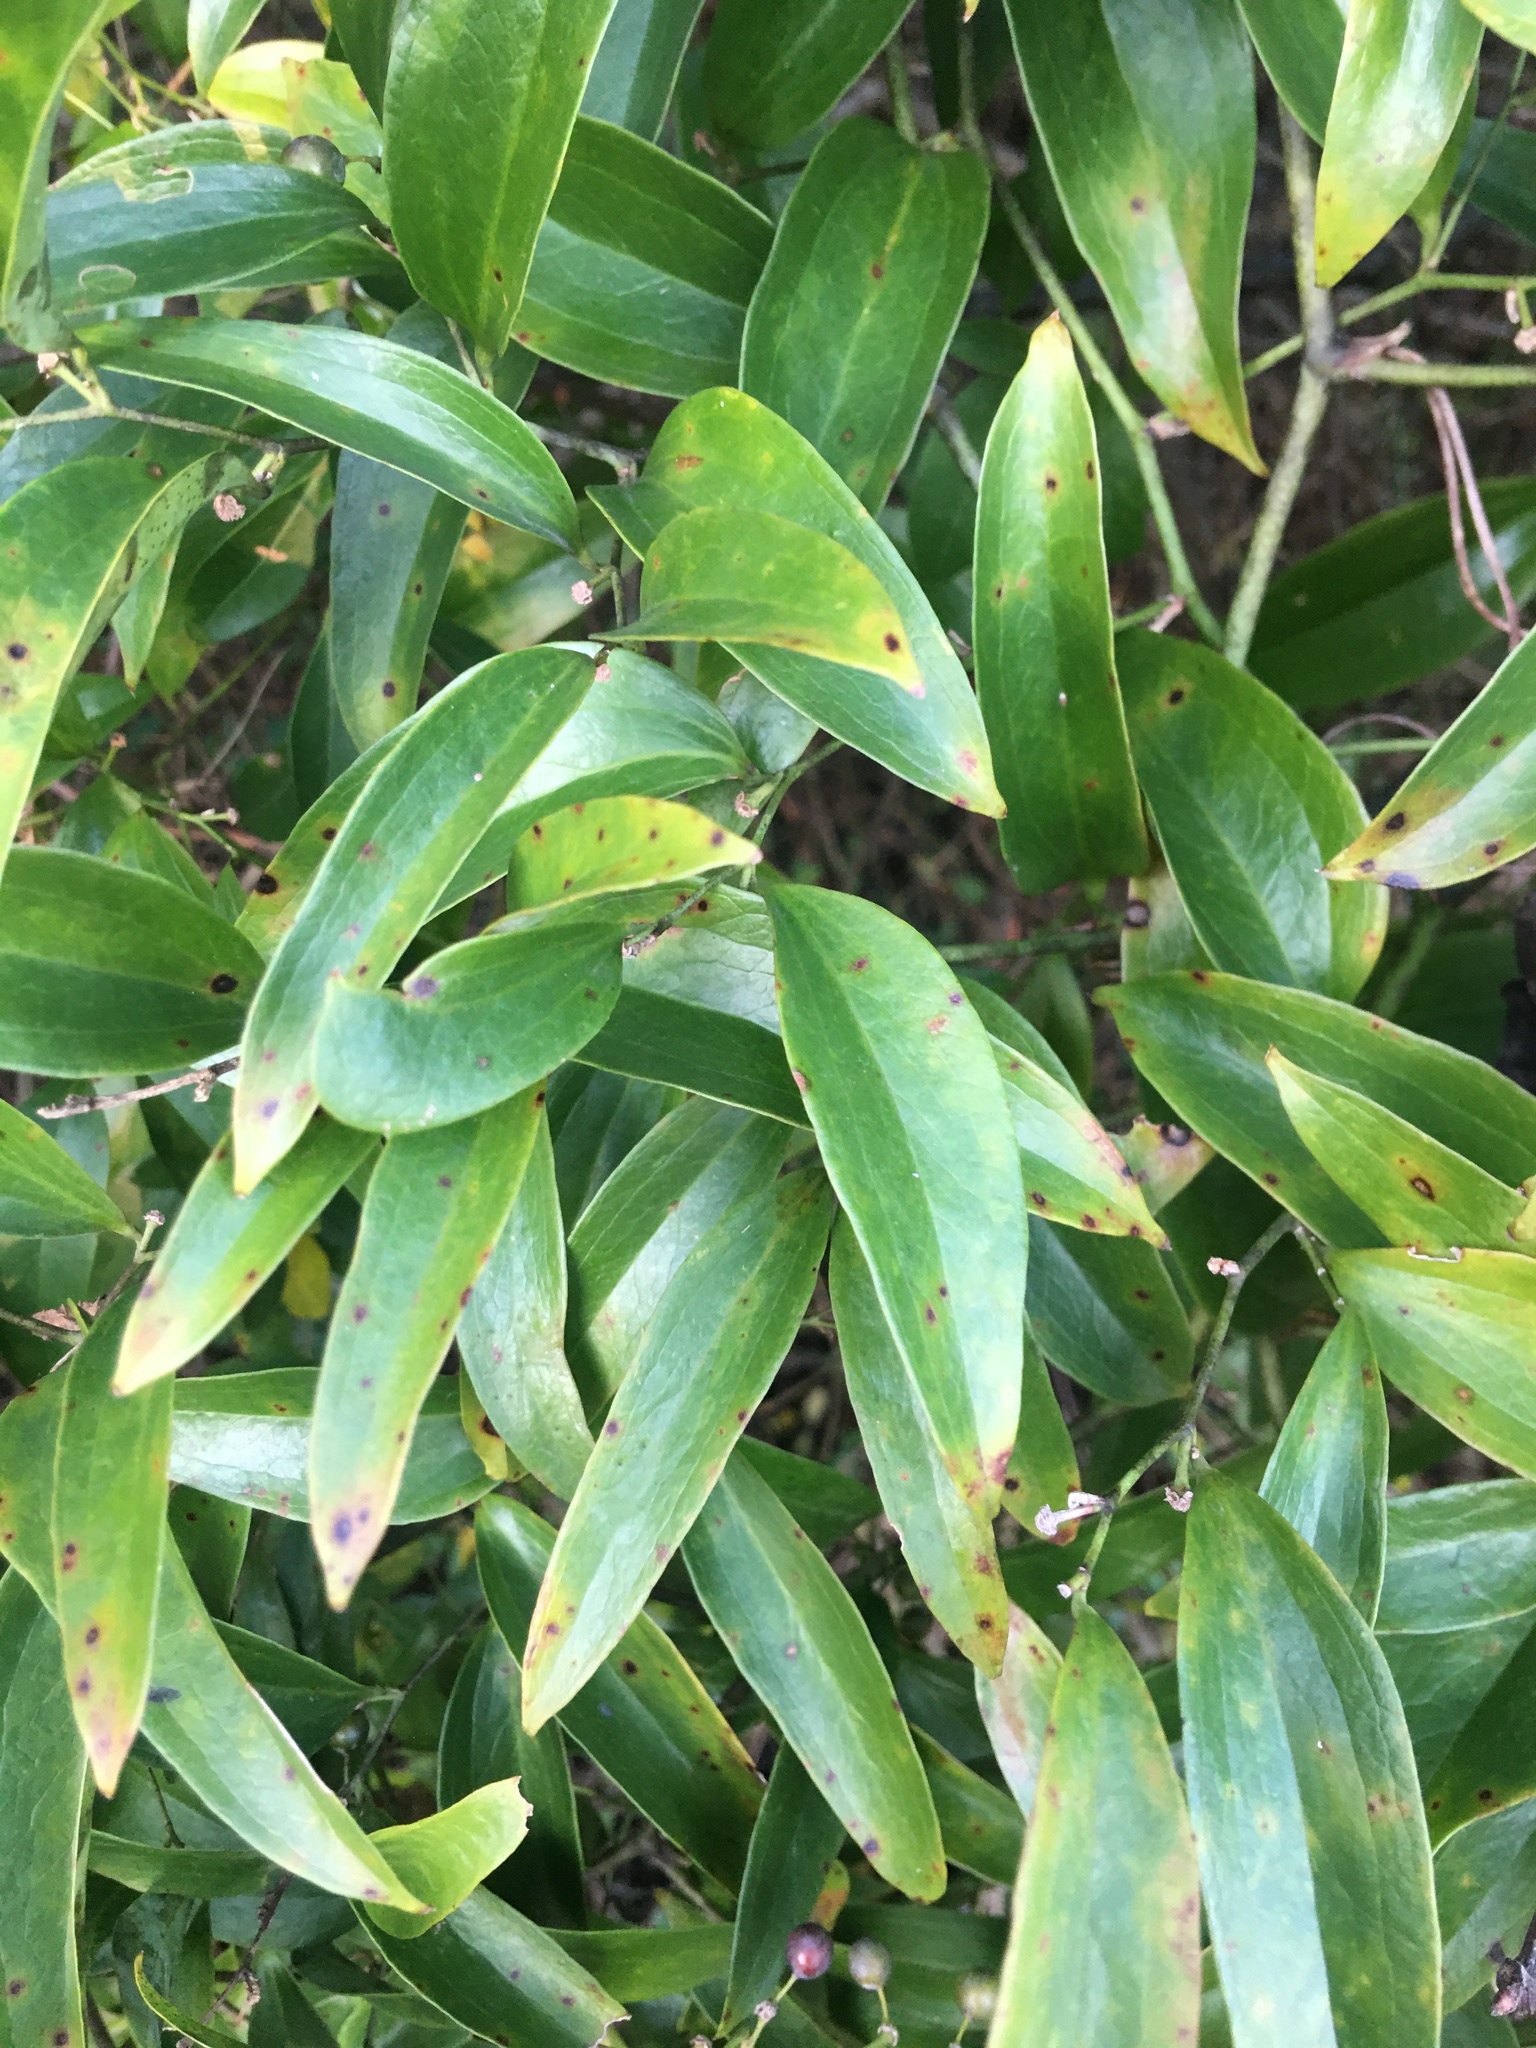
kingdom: Plantae
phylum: Tracheophyta
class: Liliopsida
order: Liliales
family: Smilacaceae
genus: Smilax
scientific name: Smilax maritima
